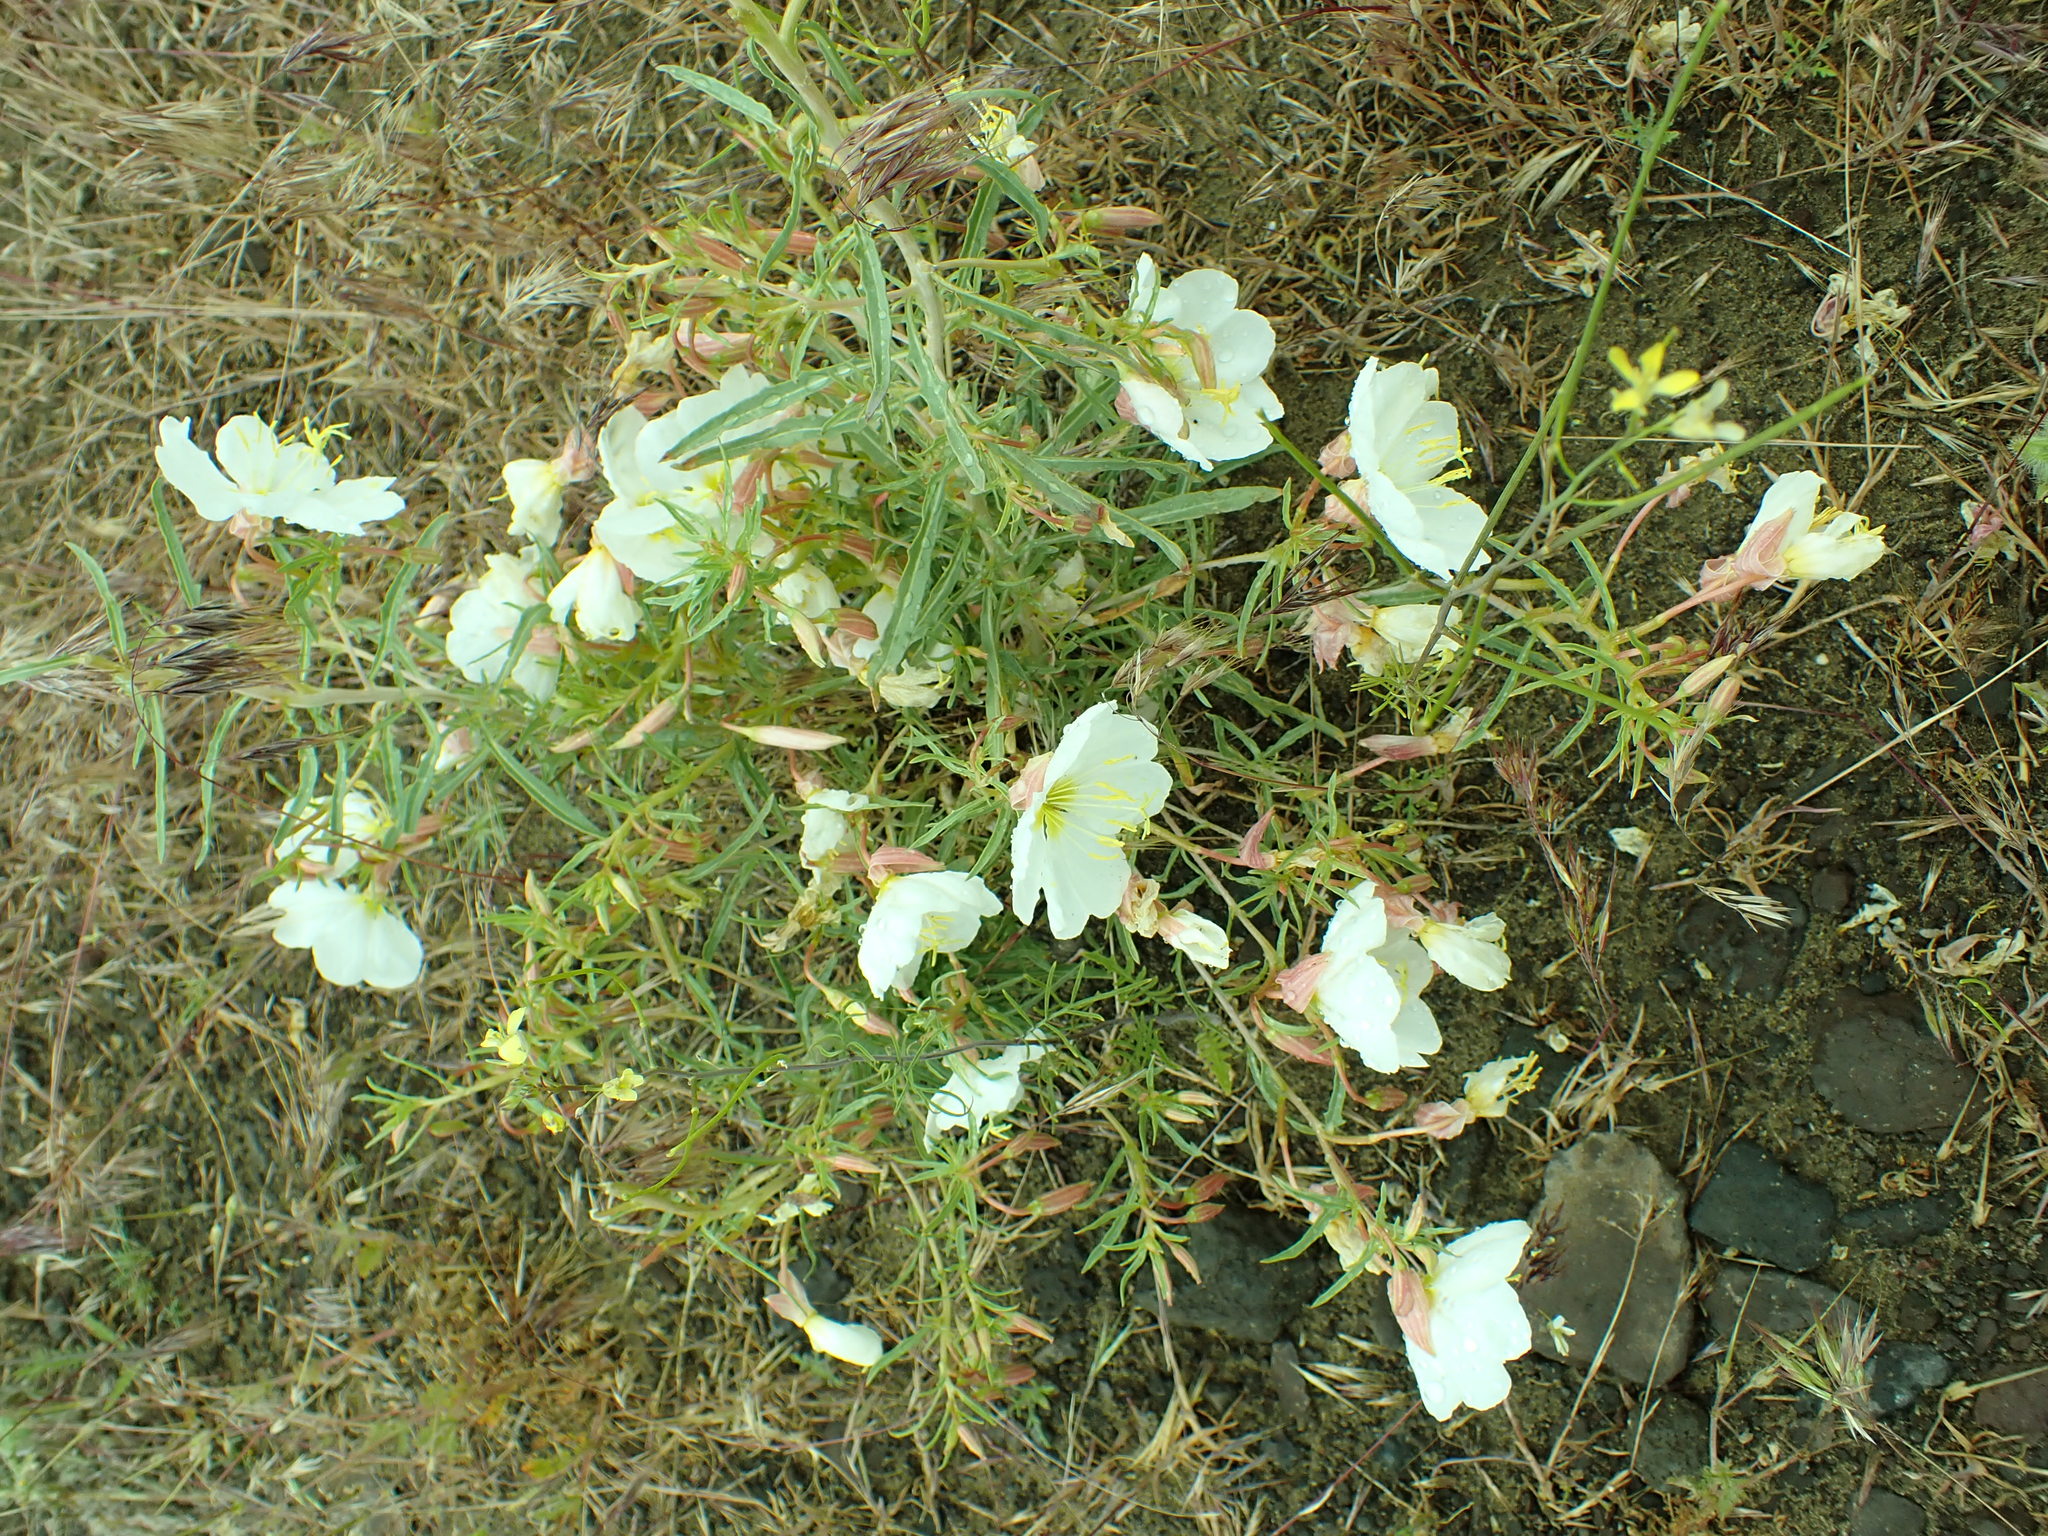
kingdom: Plantae
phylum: Tracheophyta
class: Magnoliopsida
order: Myrtales
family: Onagraceae
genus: Oenothera
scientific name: Oenothera pallida
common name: Pale evening-primrose
